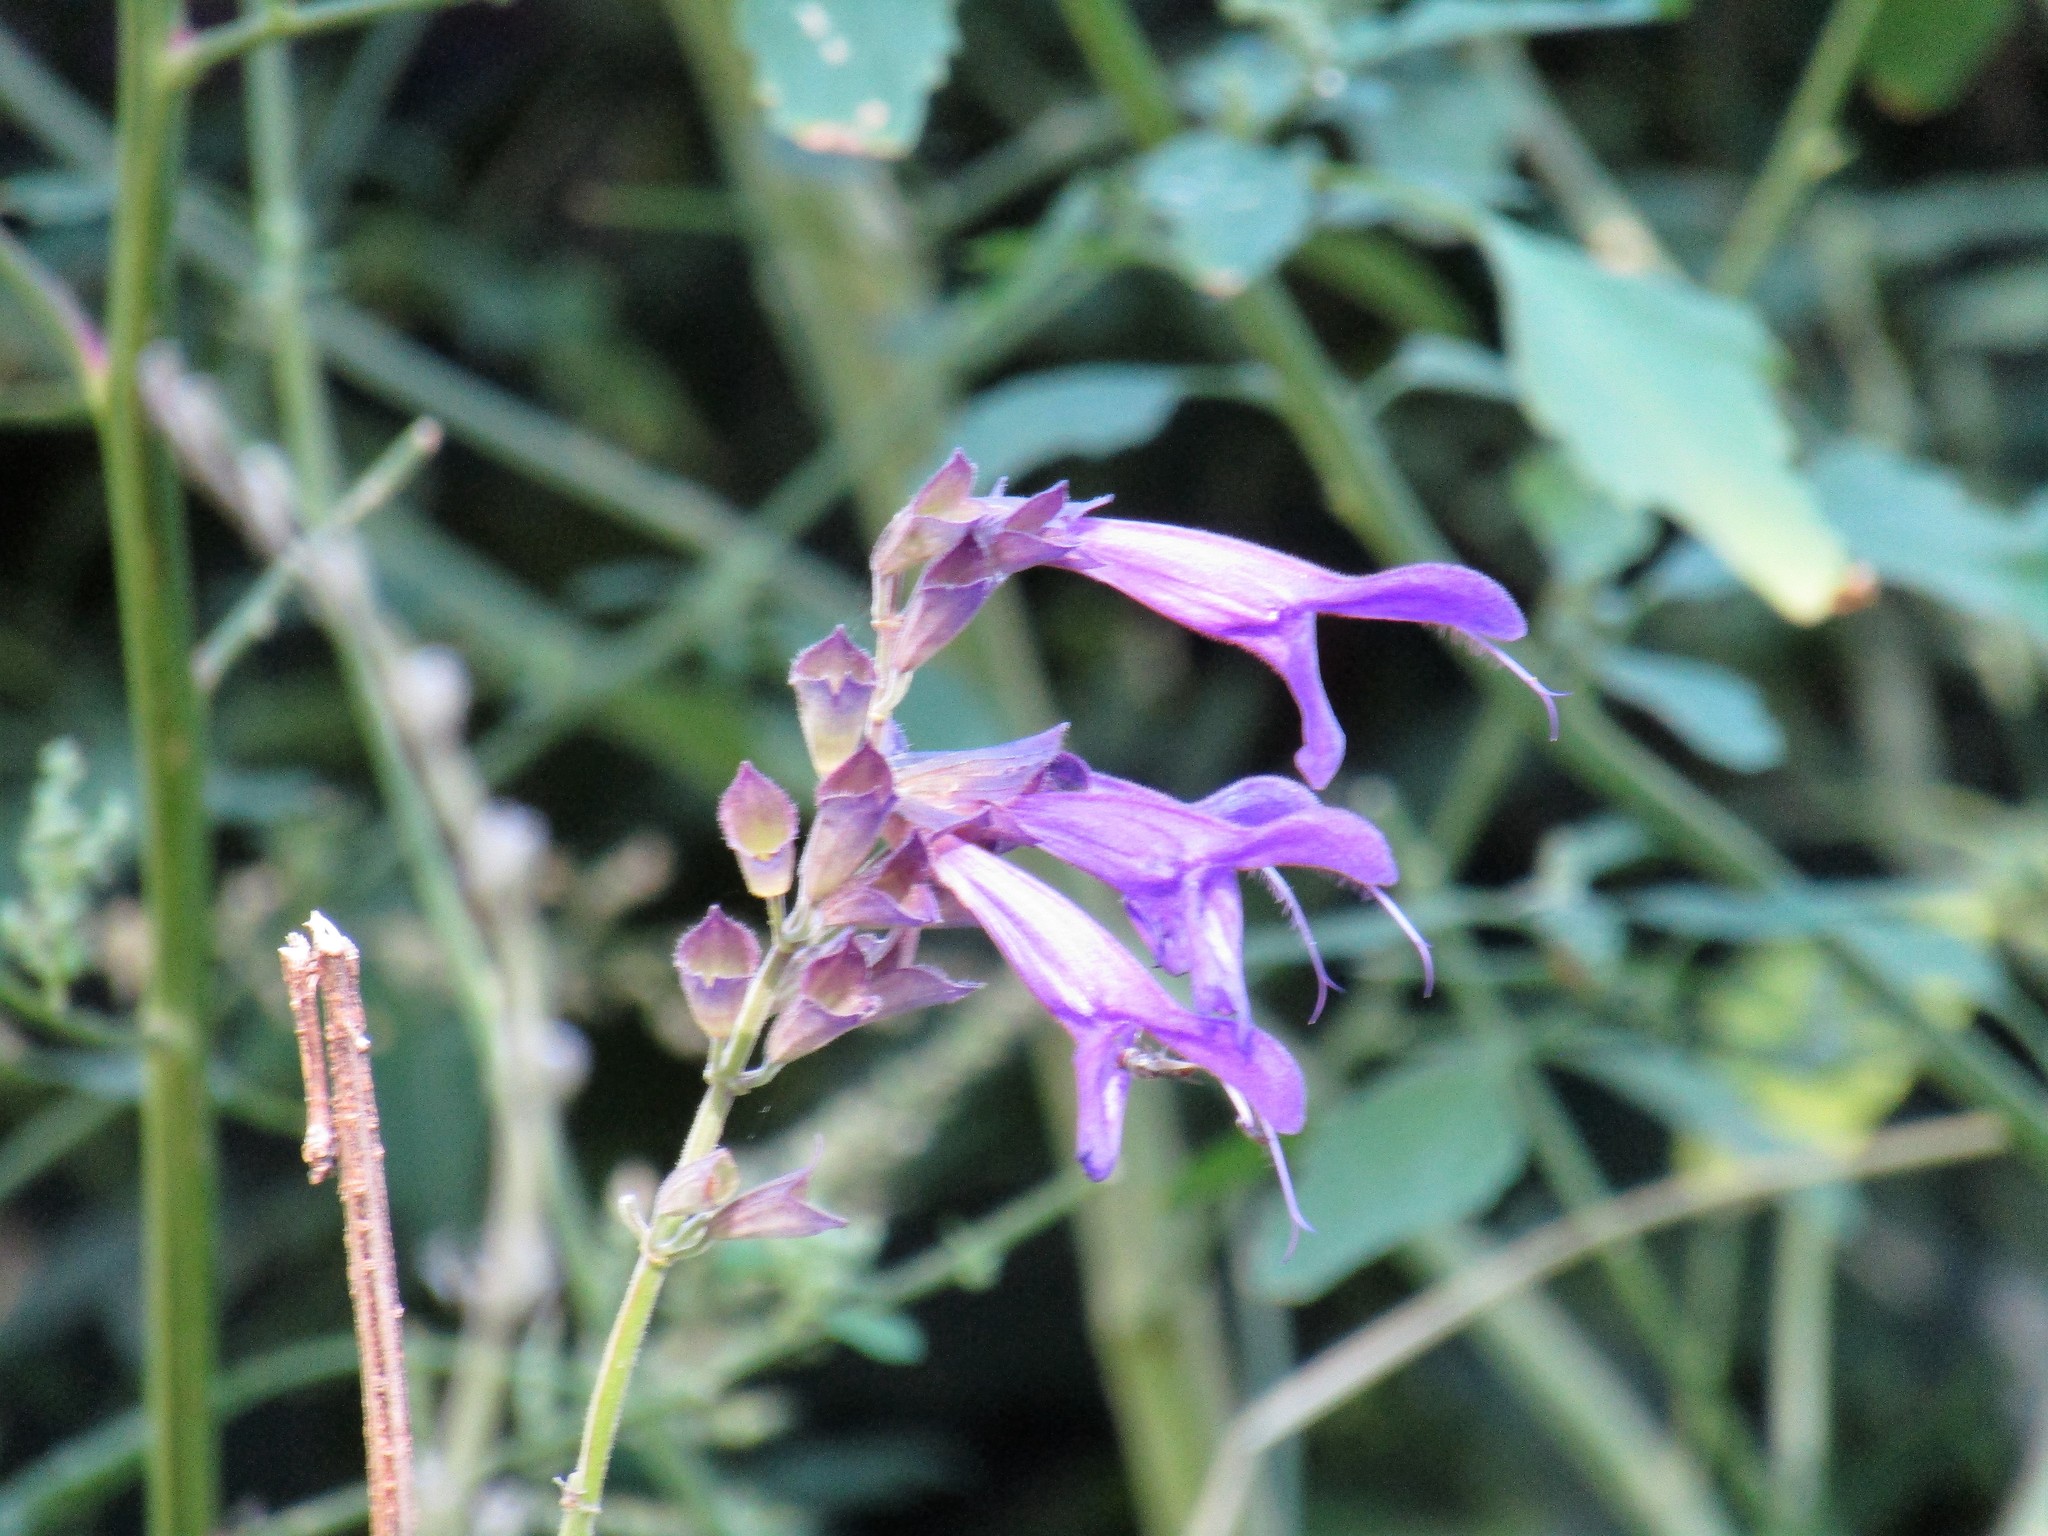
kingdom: Plantae
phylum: Tracheophyta
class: Magnoliopsida
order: Lamiales
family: Lamiaceae
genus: Salvia
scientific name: Salvia guaranitica
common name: Anise-scented sage
